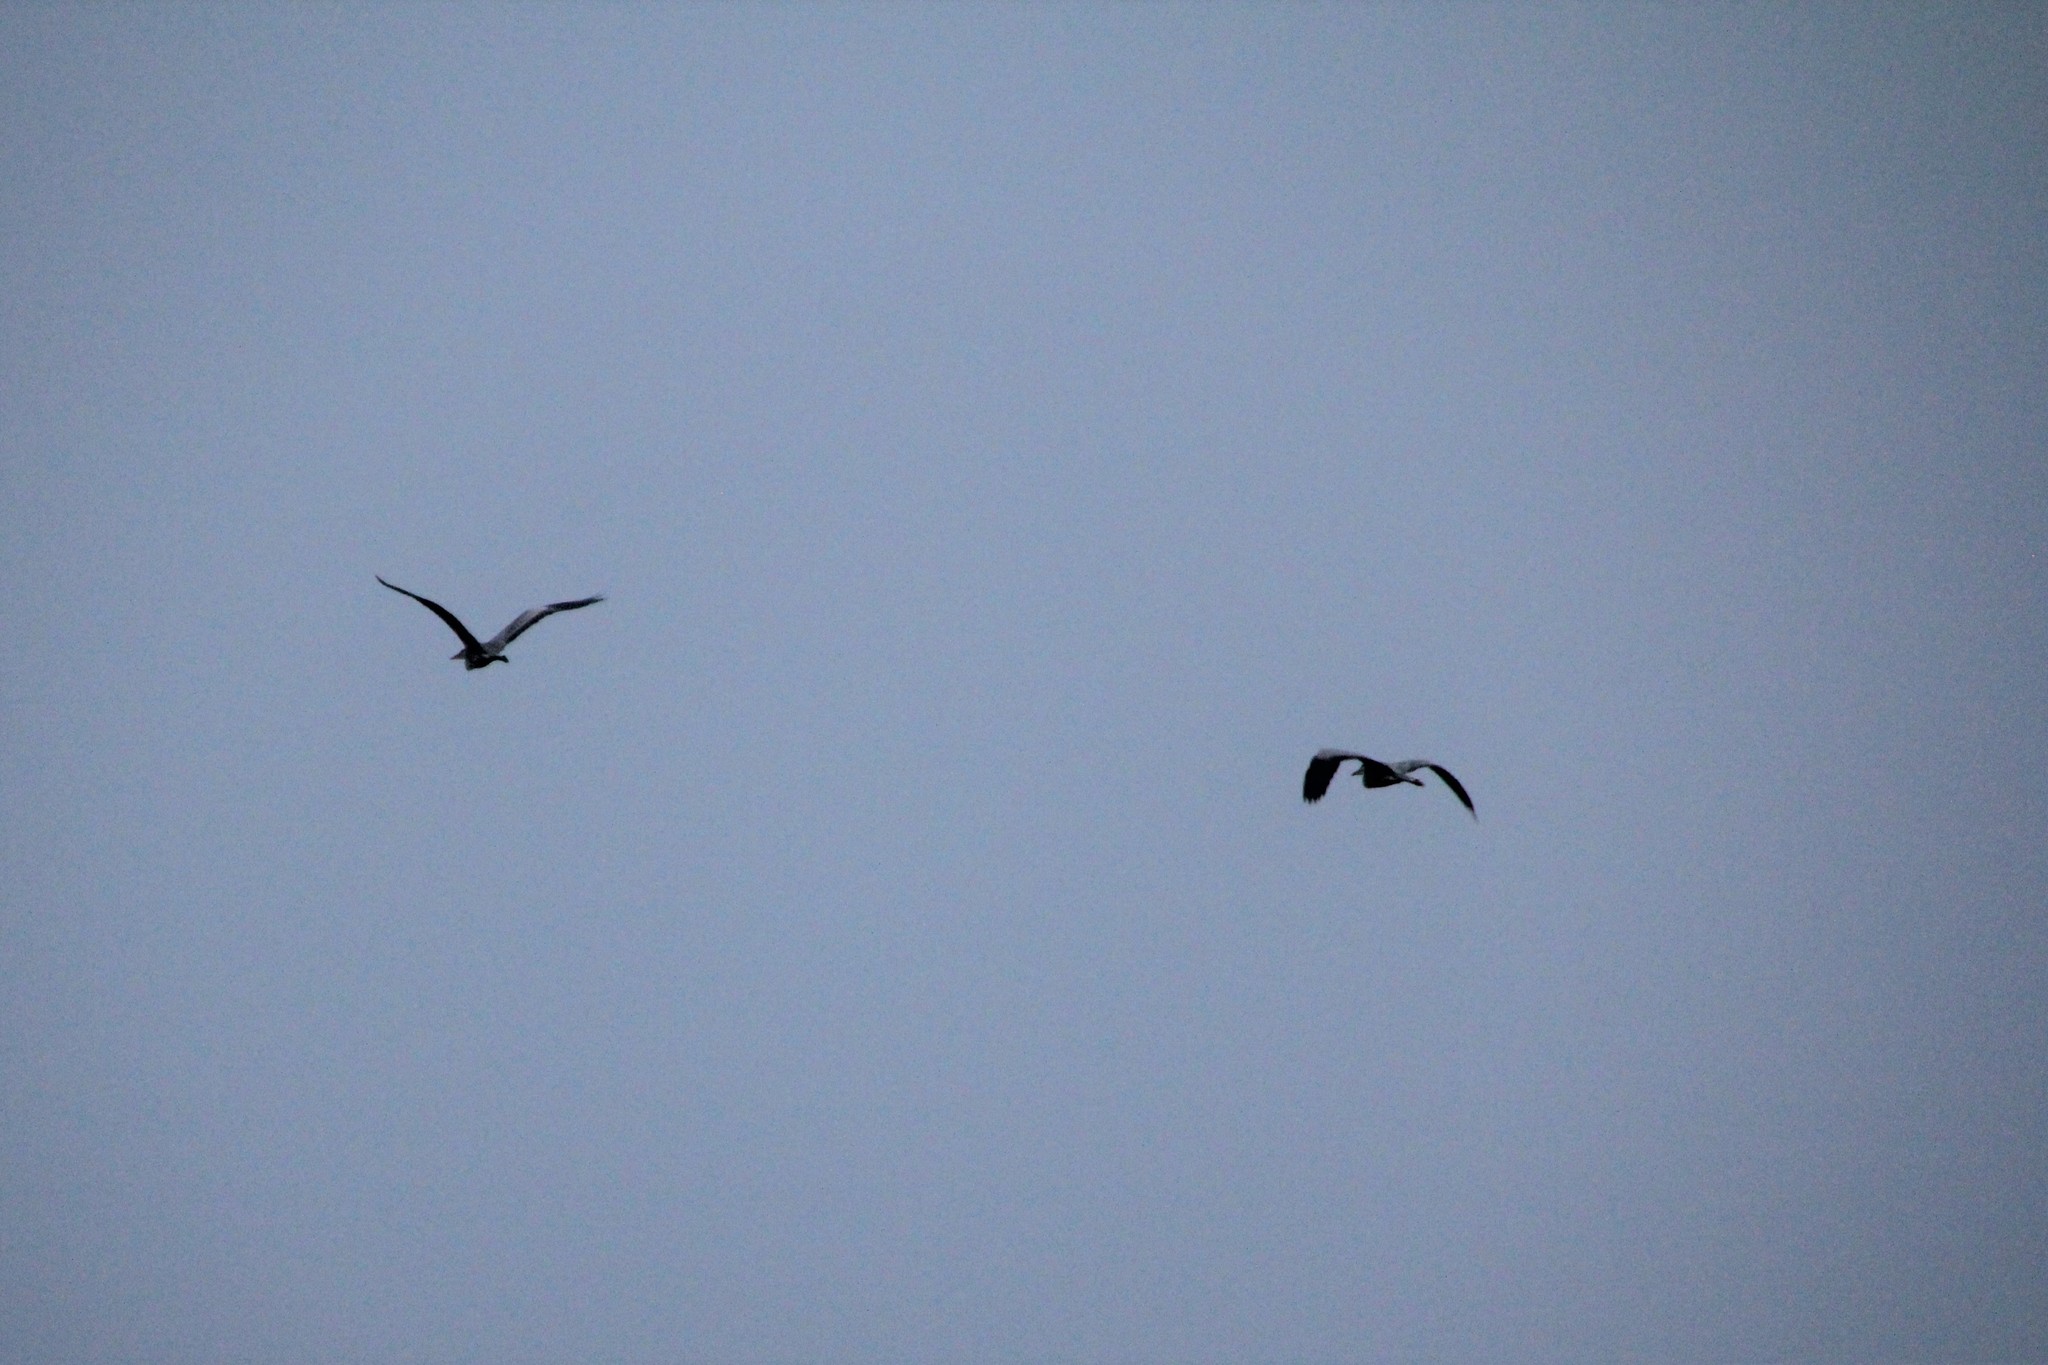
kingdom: Animalia
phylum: Chordata
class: Aves
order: Pelecaniformes
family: Ardeidae
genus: Ardea
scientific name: Ardea cinerea
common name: Grey heron
